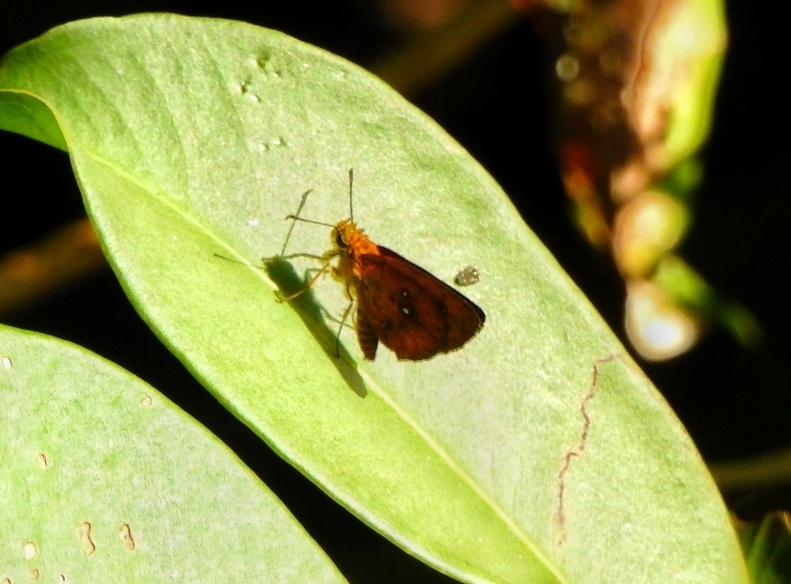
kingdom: Animalia
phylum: Arthropoda
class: Insecta
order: Lepidoptera
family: Hesperiidae
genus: Iambrix
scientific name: Iambrix salsala
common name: Chestnut bob
